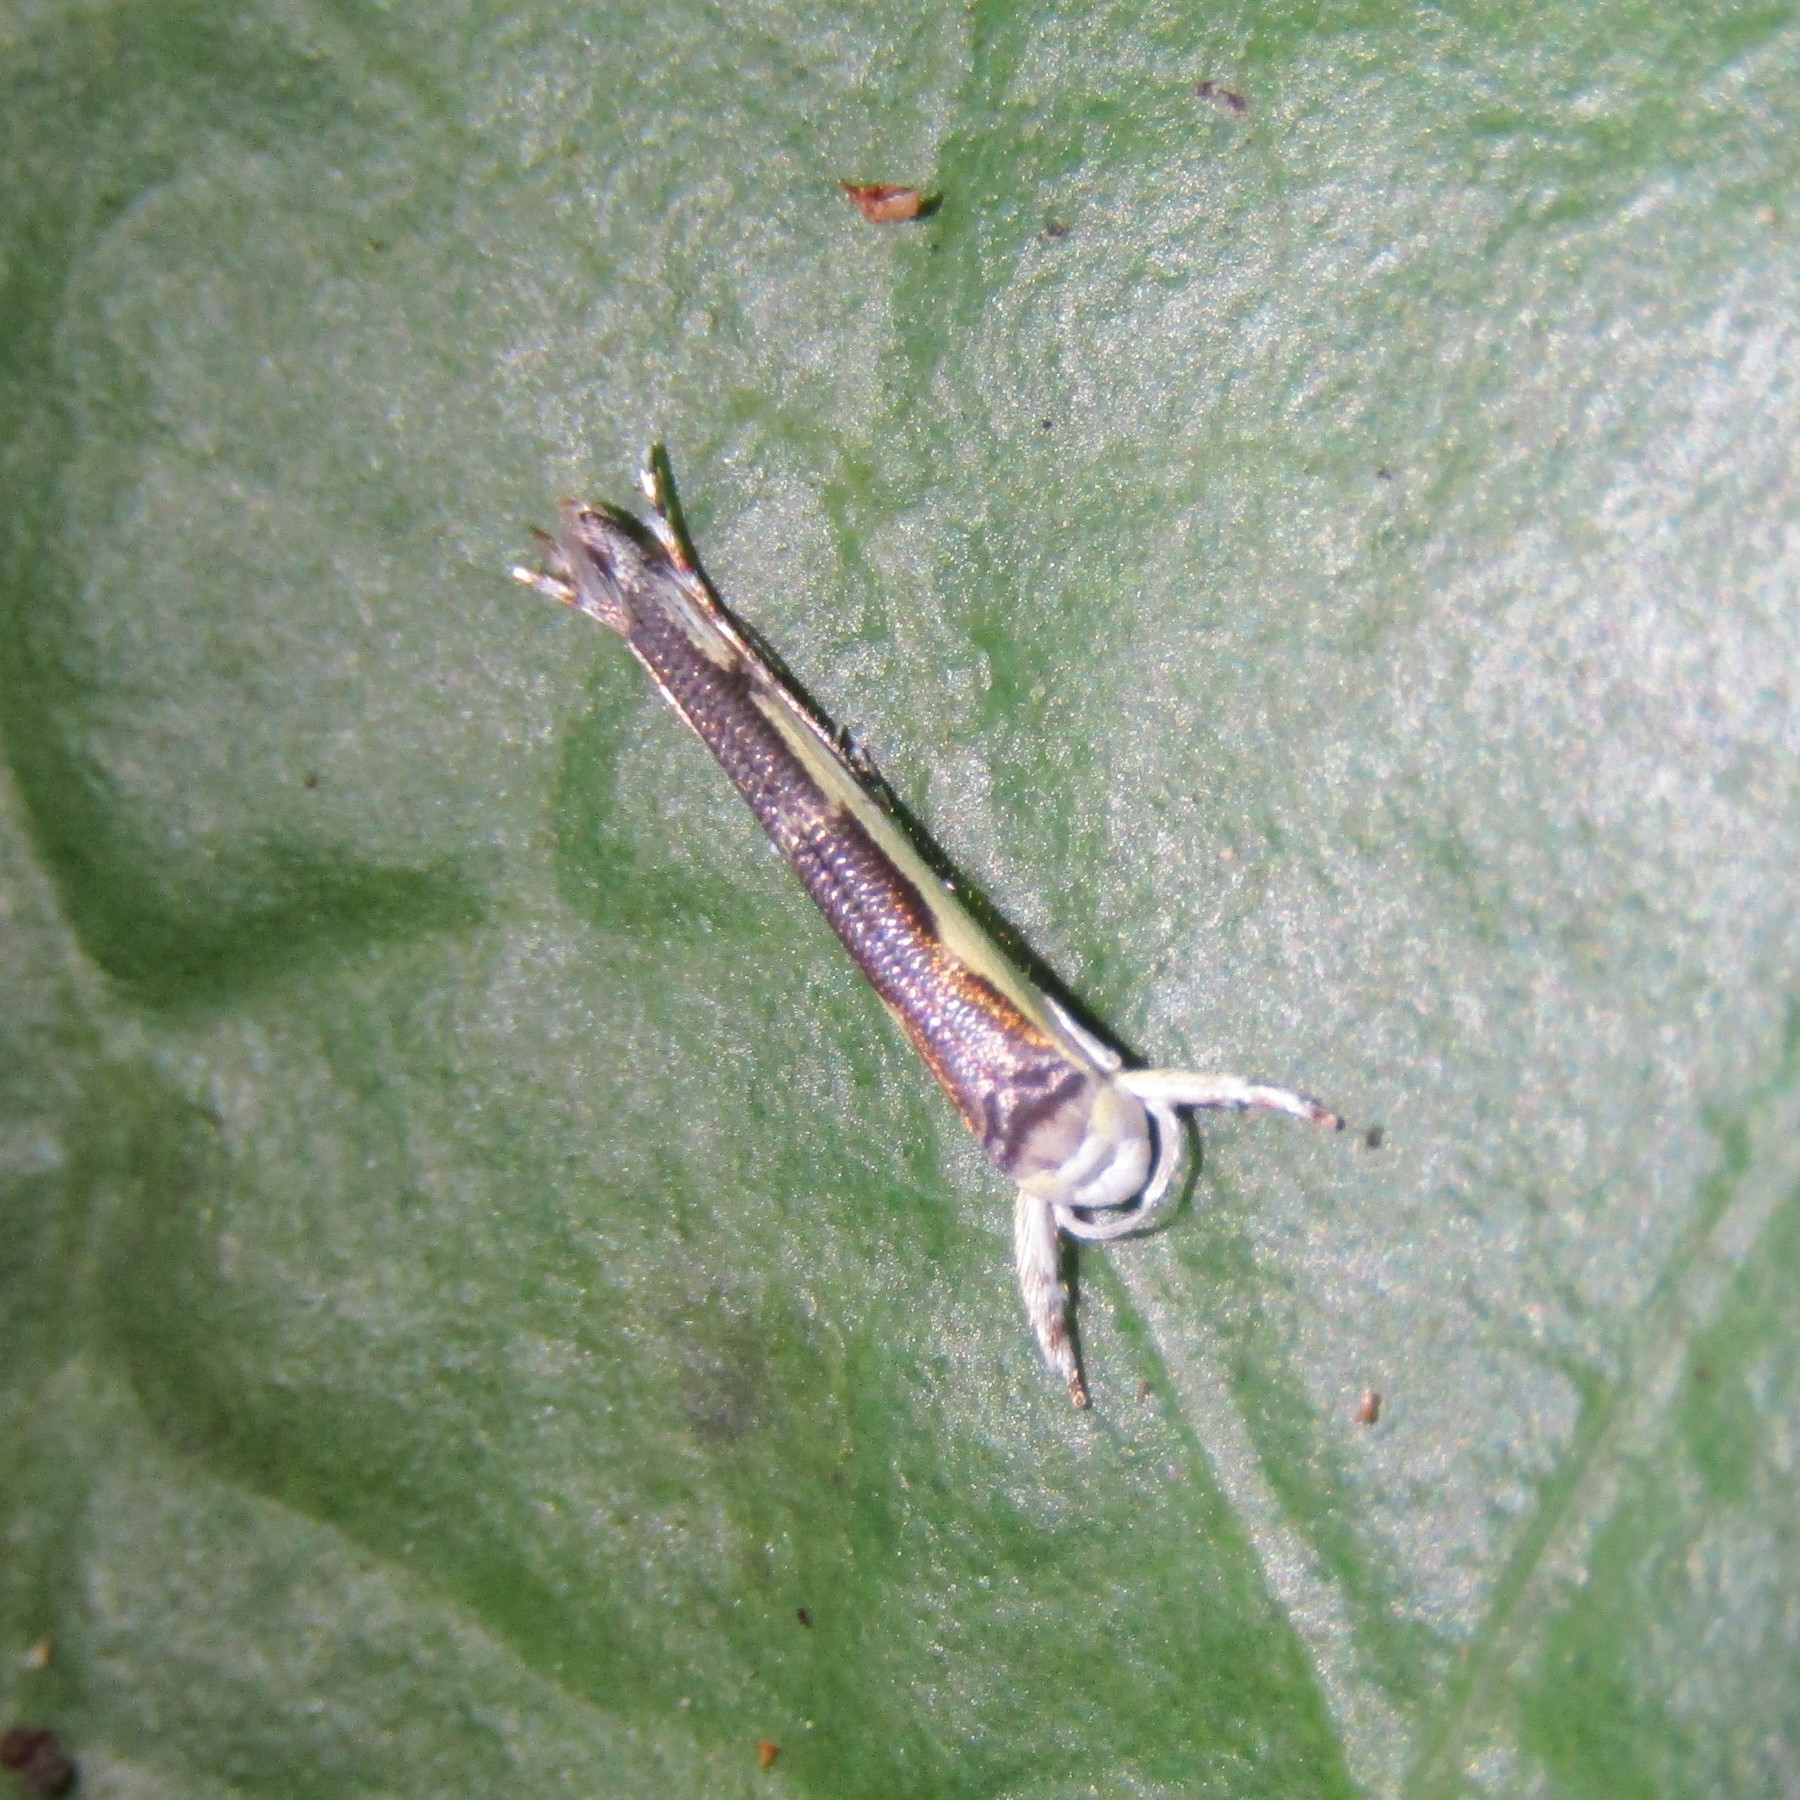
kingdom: Animalia
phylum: Arthropoda
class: Insecta
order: Lepidoptera
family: Roeslerstammiidae
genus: Vanicela
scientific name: Vanicela disjunctella
